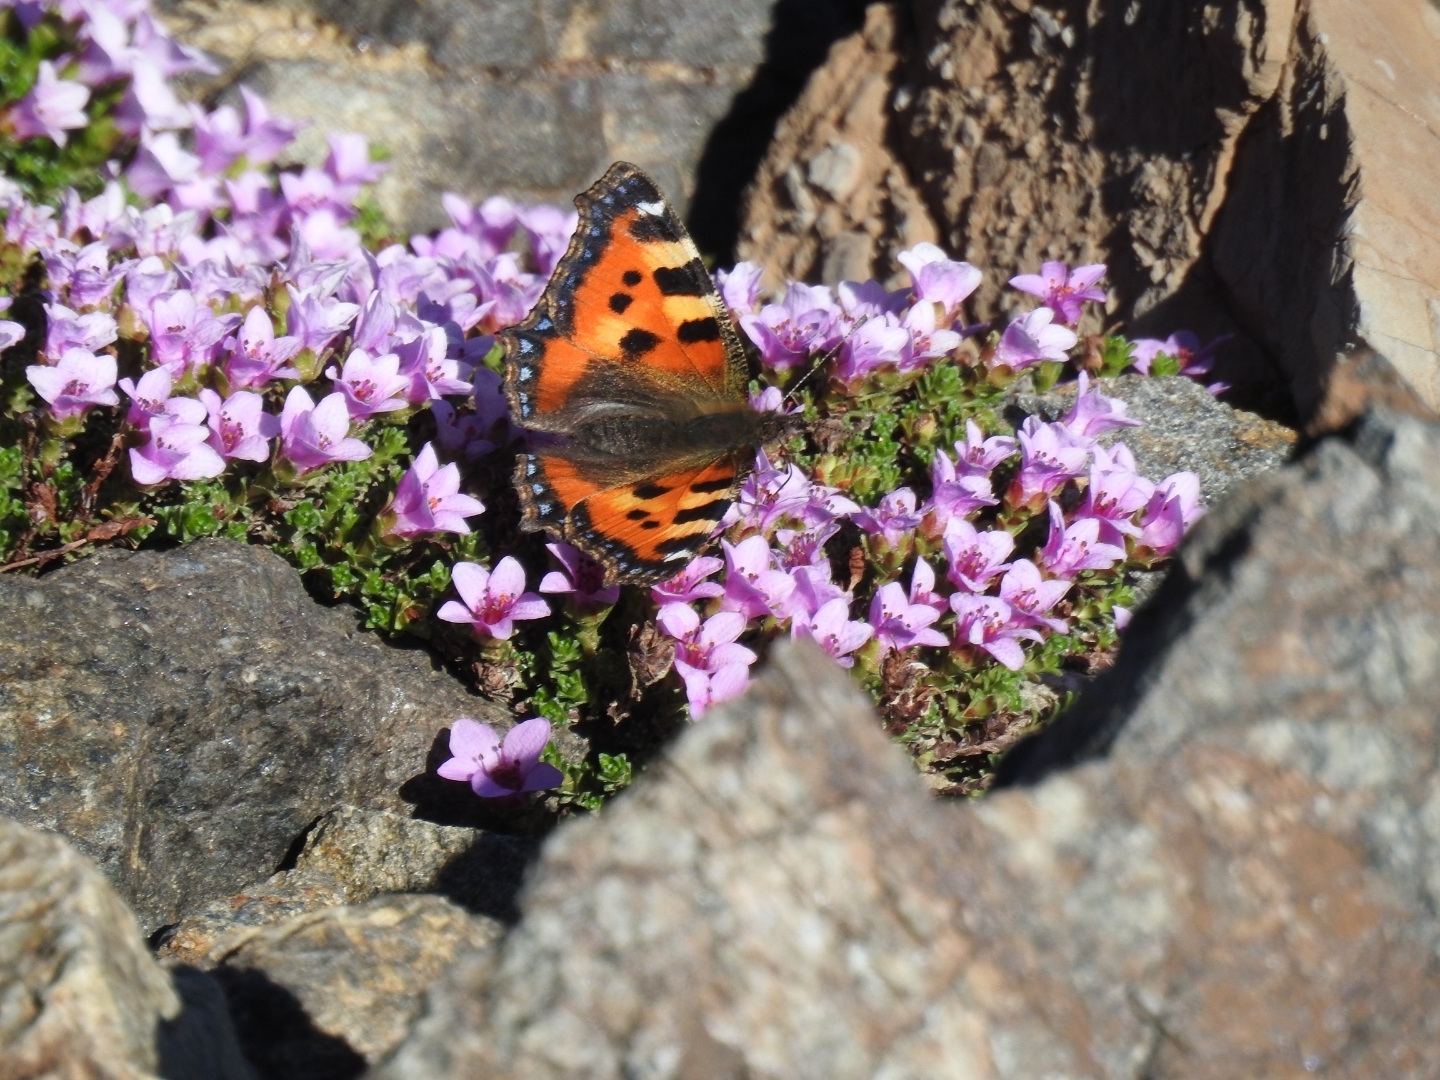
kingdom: Animalia
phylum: Arthropoda
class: Insecta
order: Lepidoptera
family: Nymphalidae
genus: Aglais
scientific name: Aglais urticae
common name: Small tortoiseshell
